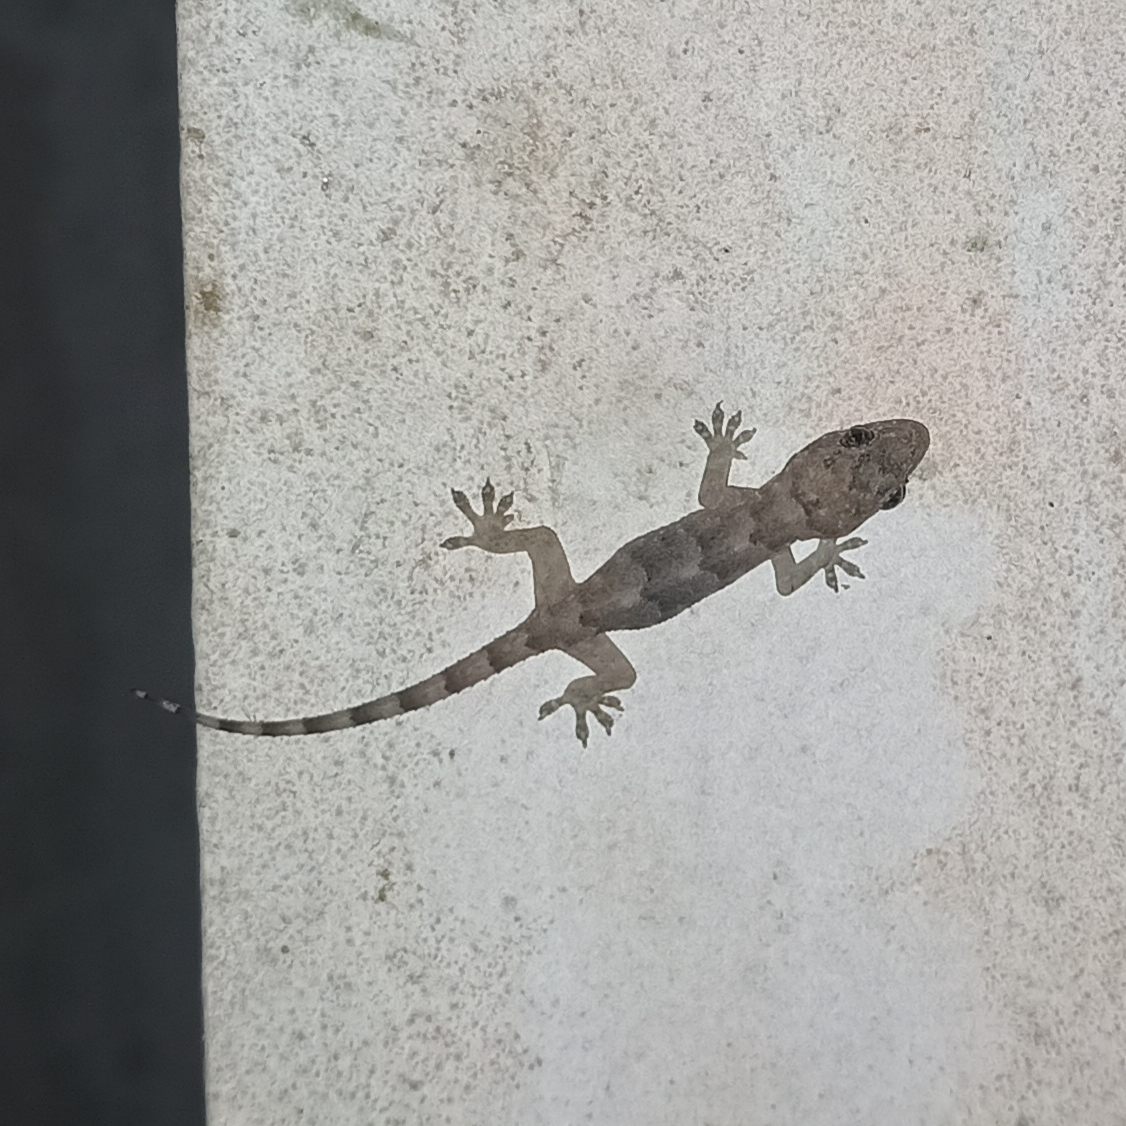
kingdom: Animalia
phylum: Chordata
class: Squamata
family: Gekkonidae
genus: Hemidactylus
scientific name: Hemidactylus mabouia
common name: House gecko
